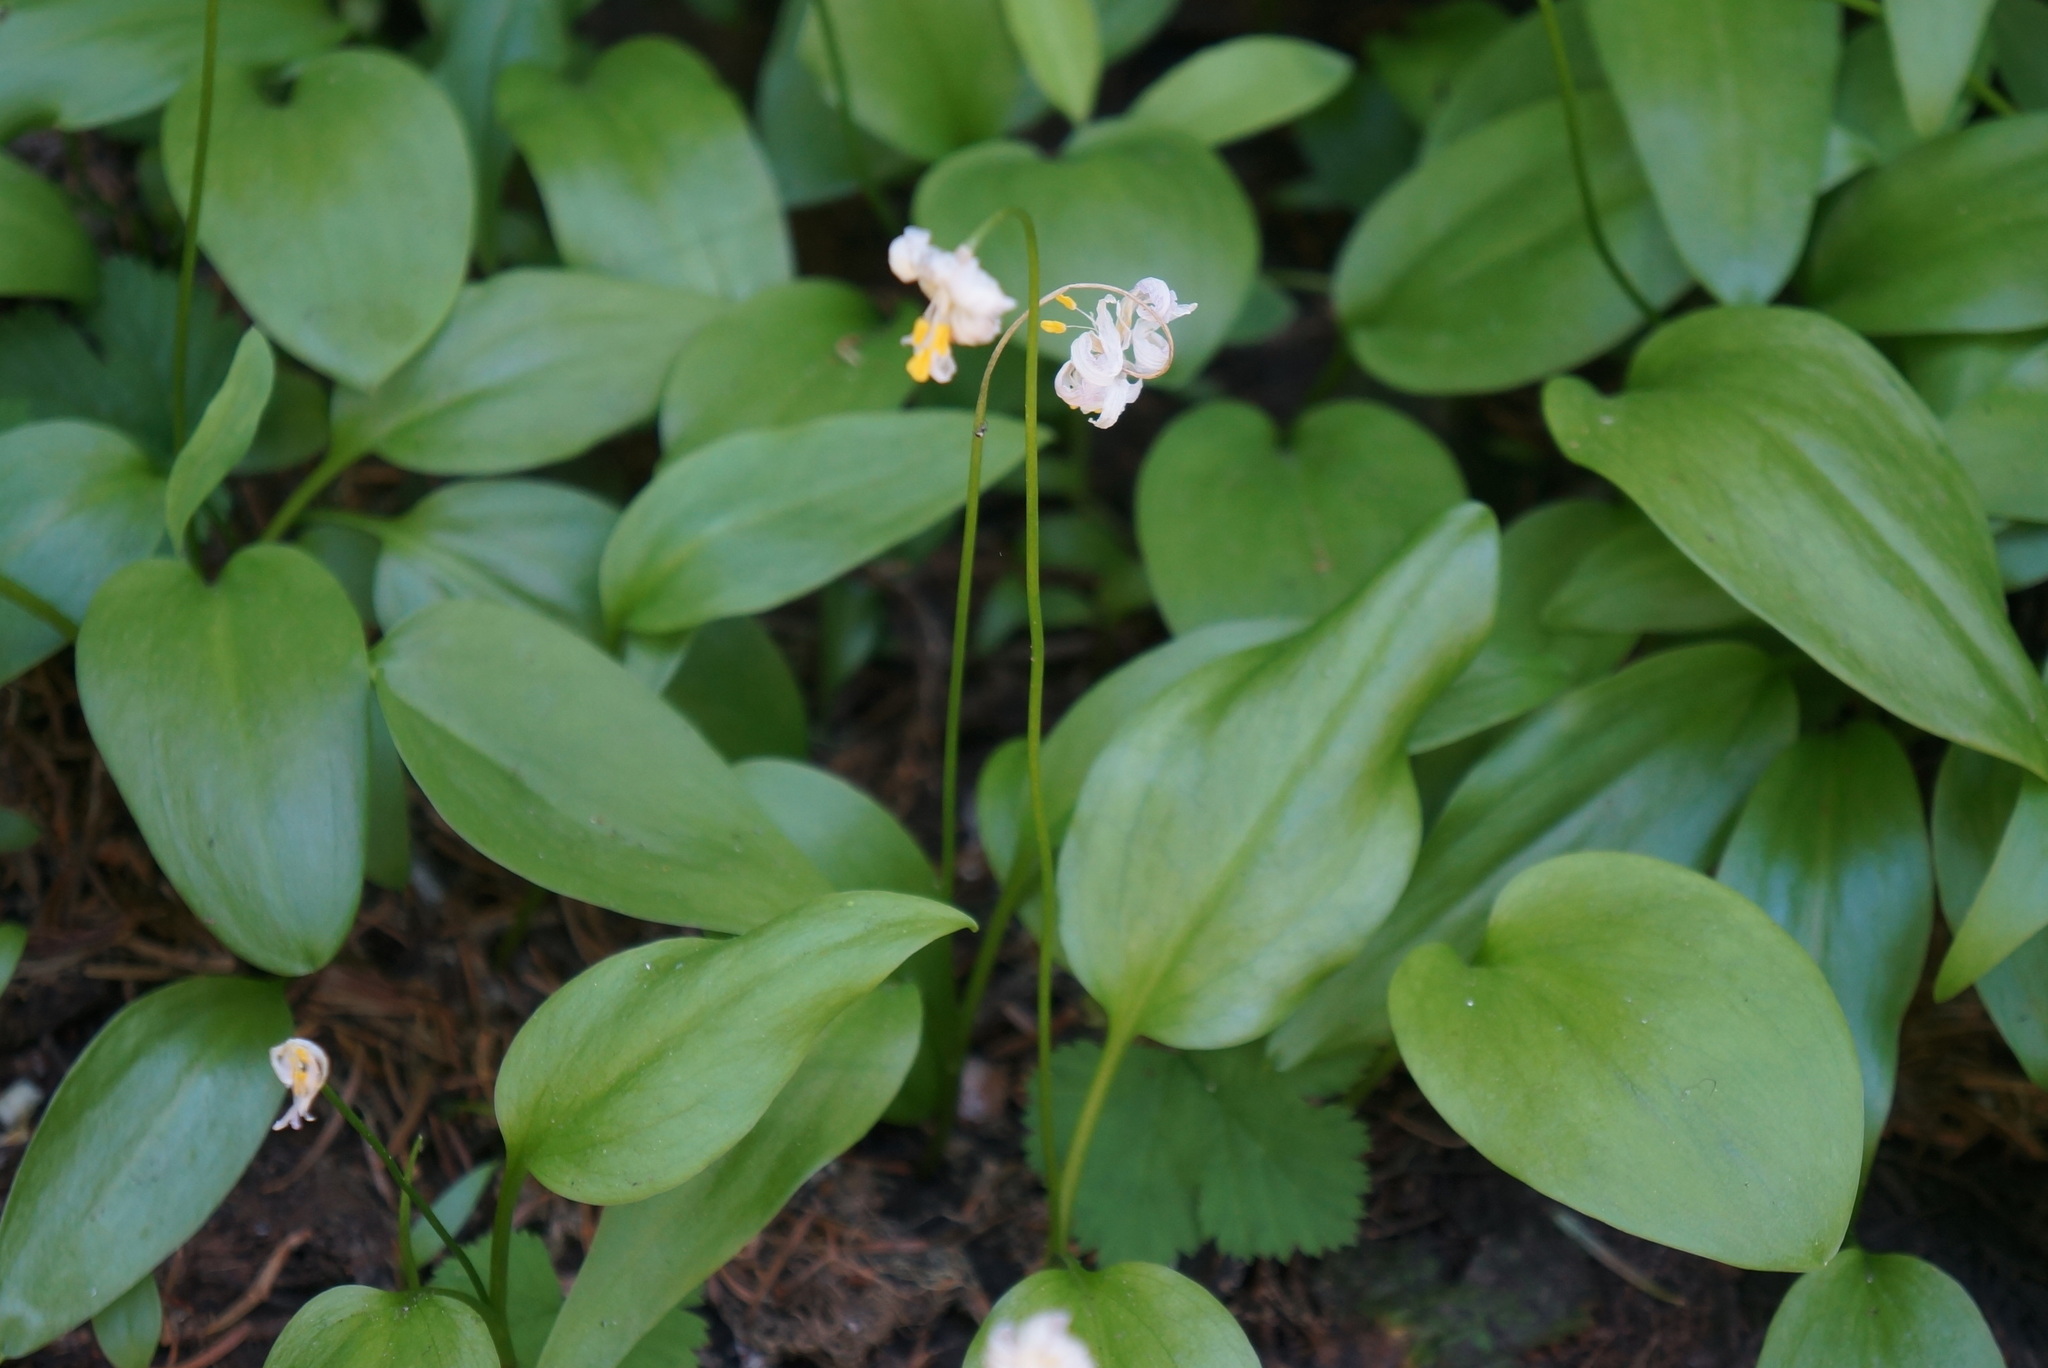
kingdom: Plantae
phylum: Tracheophyta
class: Liliopsida
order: Liliales
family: Liliaceae
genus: Erythronium
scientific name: Erythronium montanum
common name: Avalanche lily
